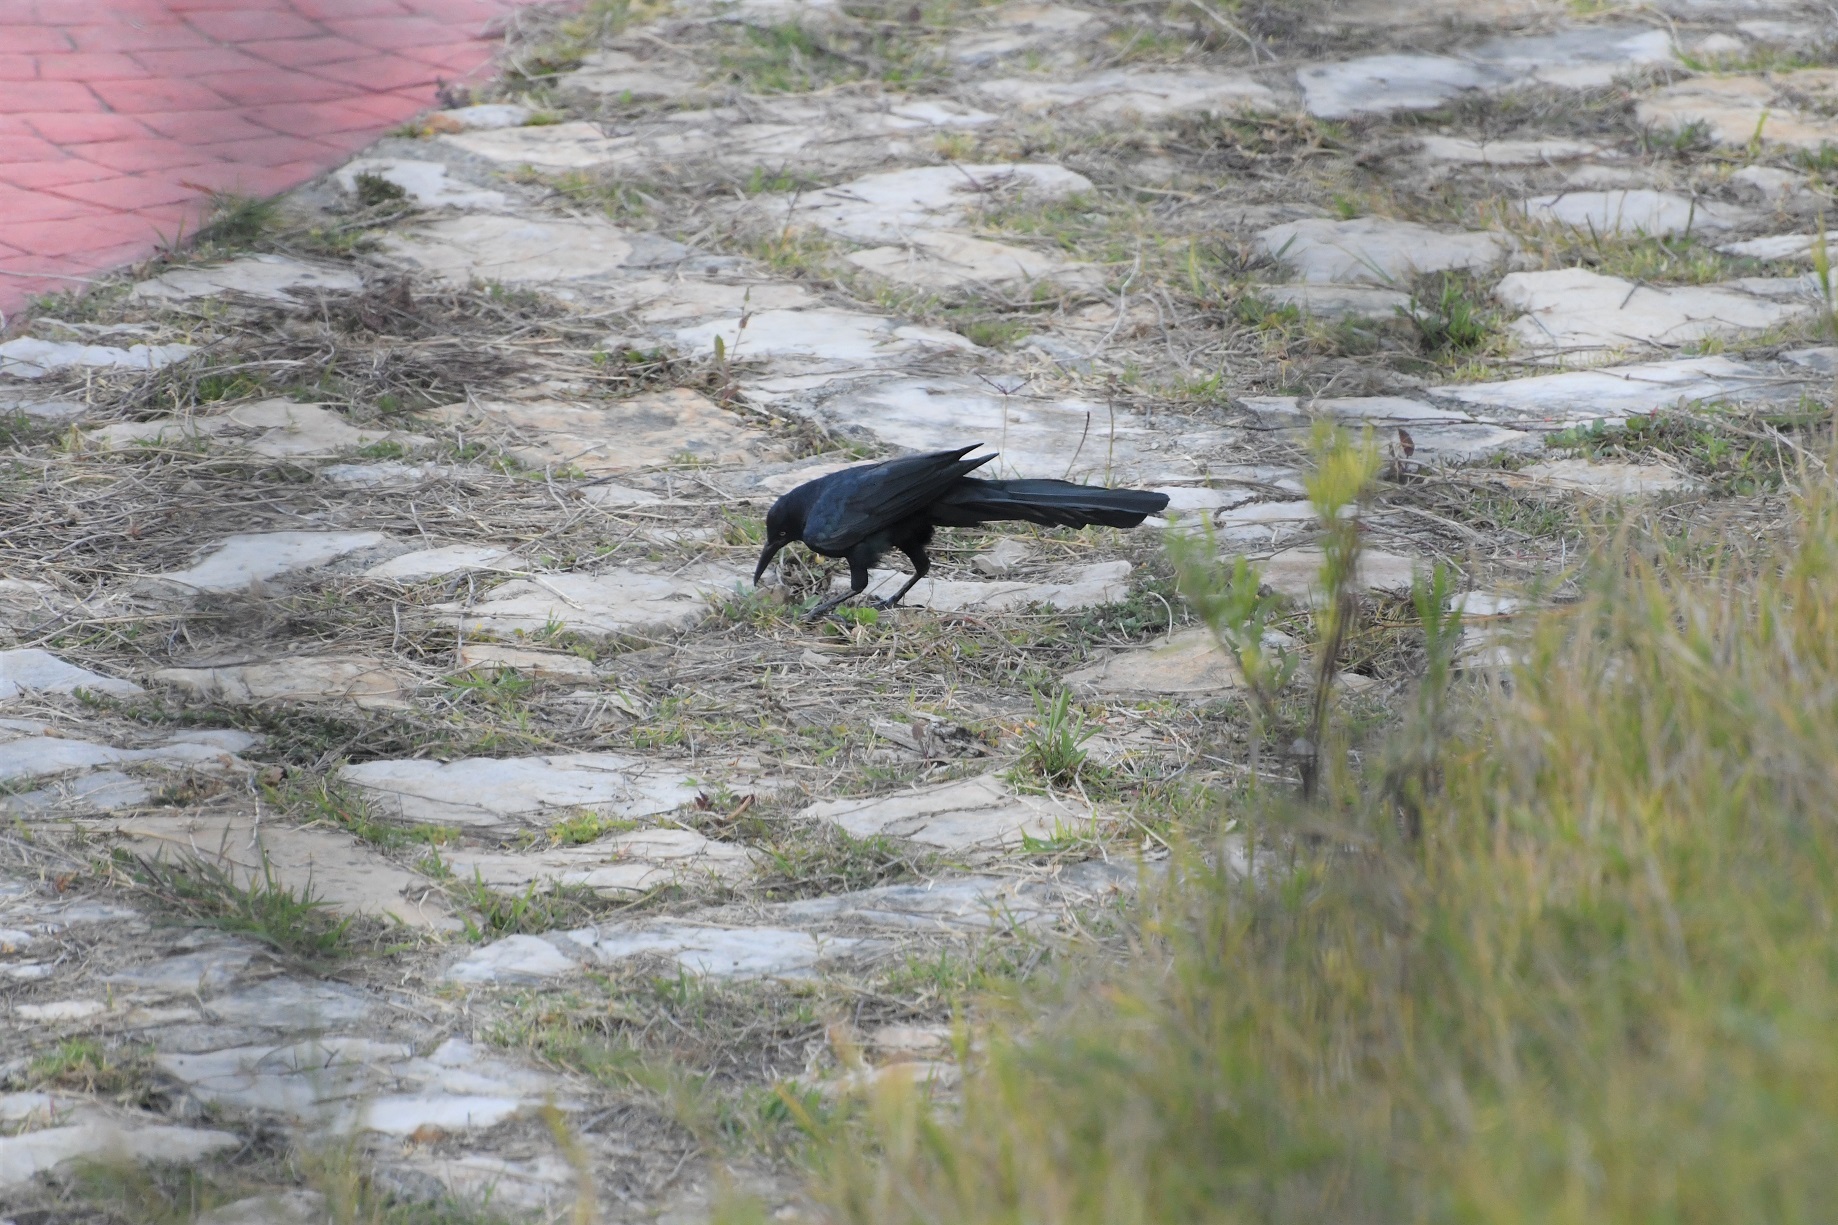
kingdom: Animalia
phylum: Chordata
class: Aves
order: Passeriformes
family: Icteridae
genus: Quiscalus
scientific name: Quiscalus mexicanus
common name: Great-tailed grackle
